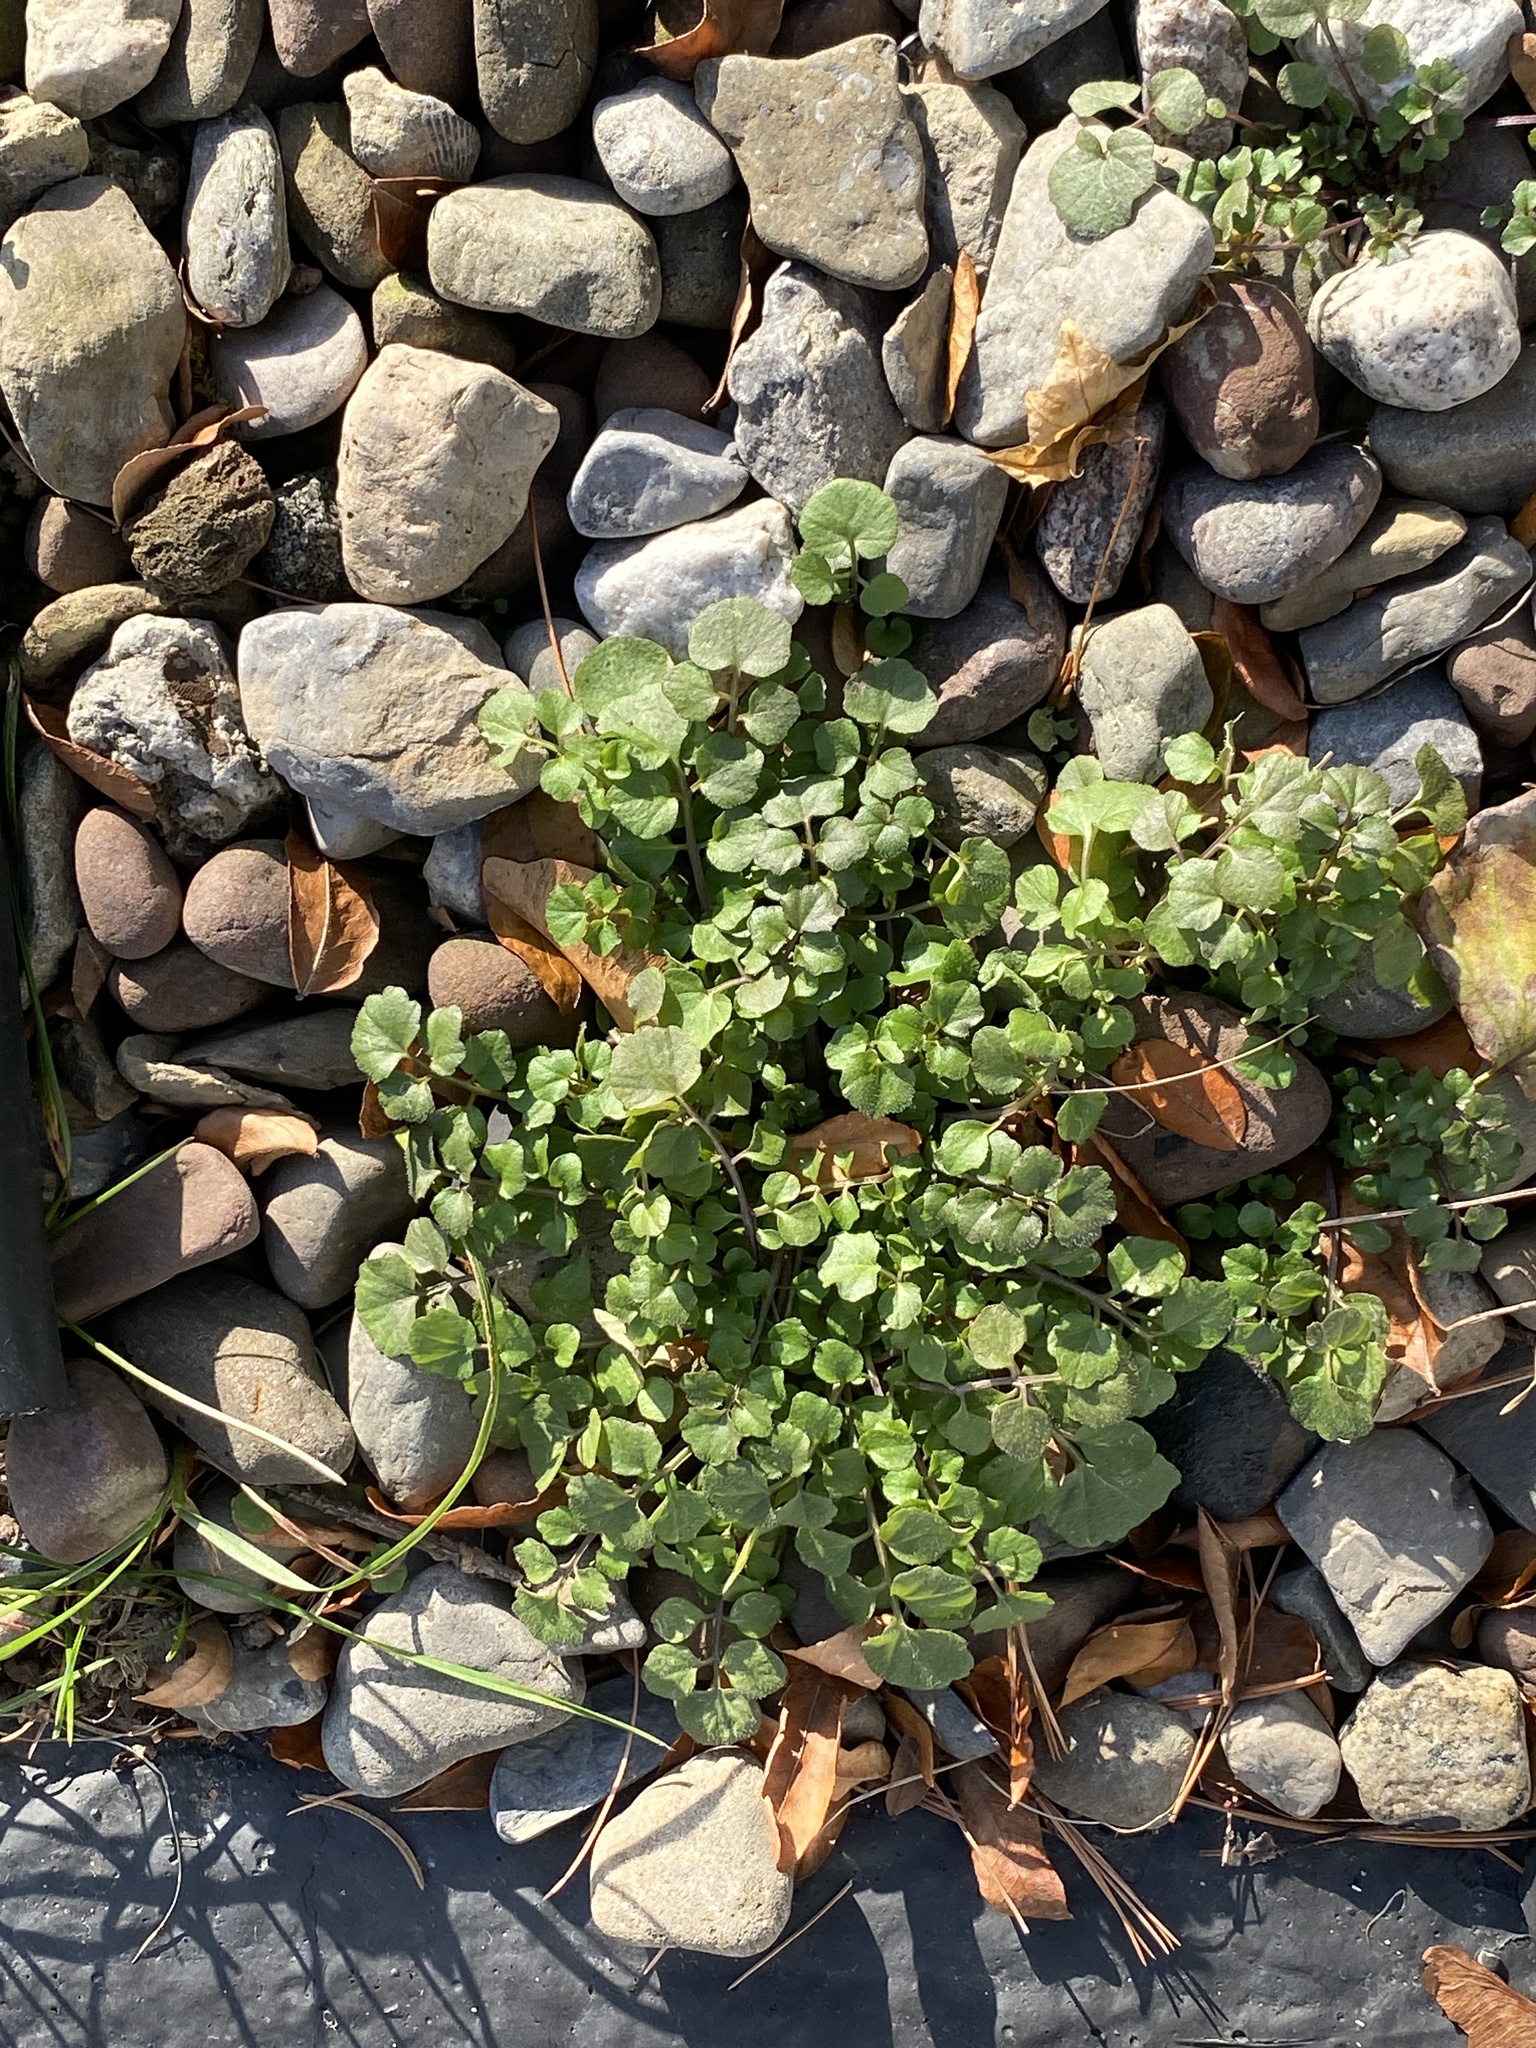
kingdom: Plantae
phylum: Tracheophyta
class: Magnoliopsida
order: Brassicales
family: Brassicaceae
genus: Cardamine
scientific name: Cardamine hirsuta
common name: Hairy bittercress
